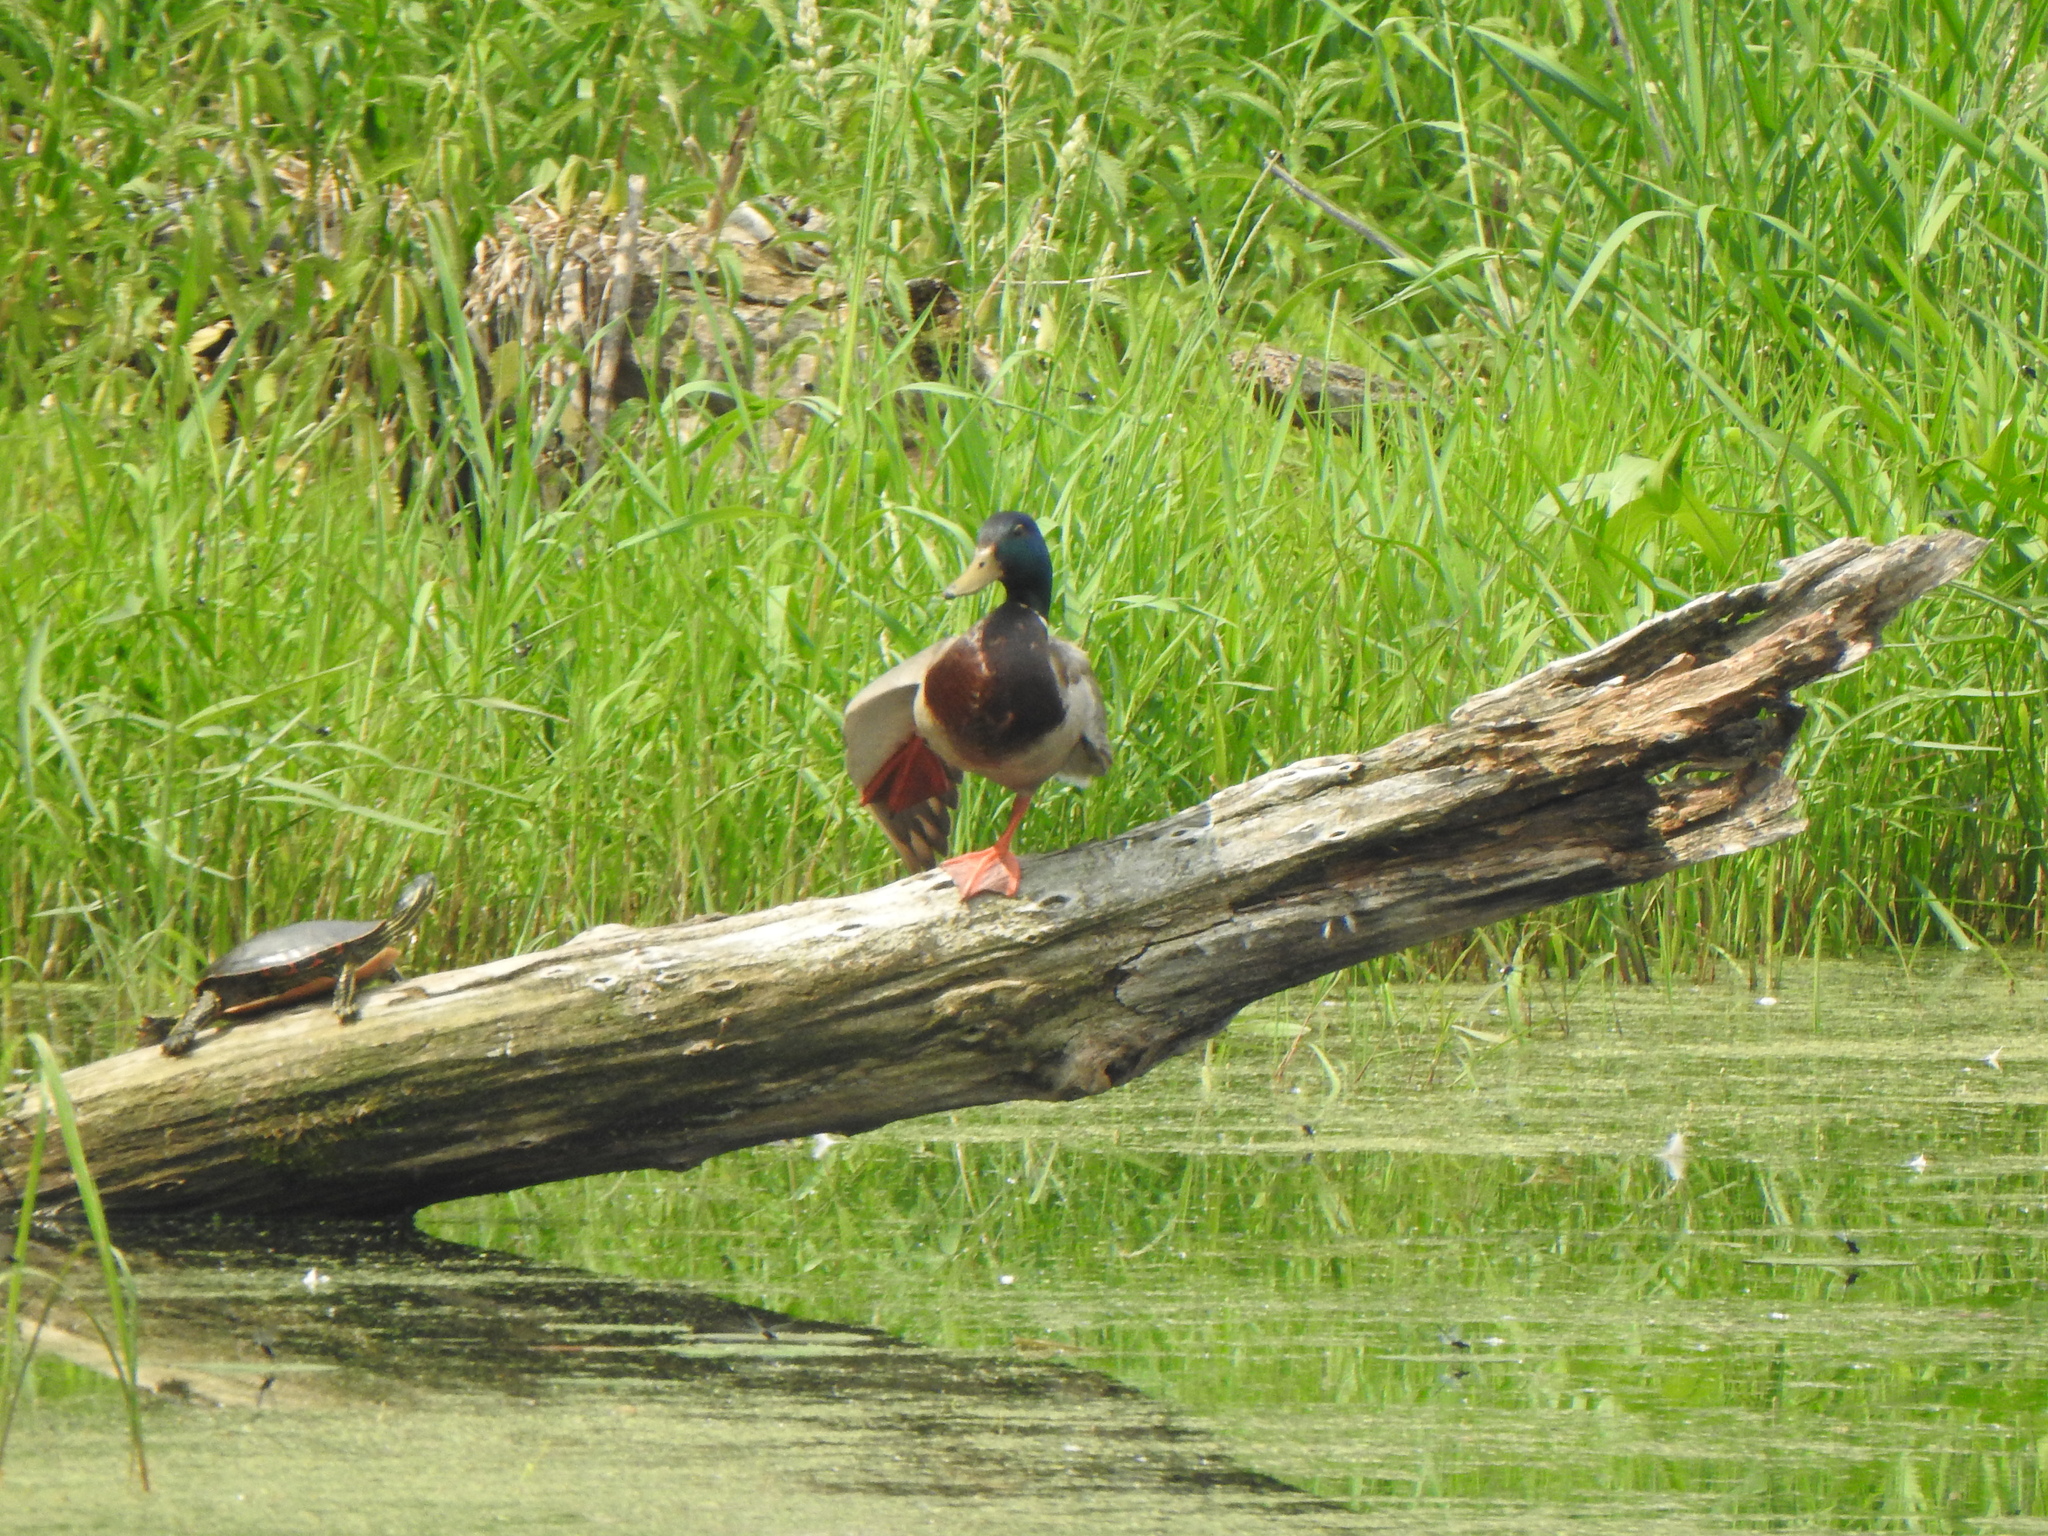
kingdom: Animalia
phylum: Chordata
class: Aves
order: Anseriformes
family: Anatidae
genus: Anas
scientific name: Anas platyrhynchos
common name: Mallard
